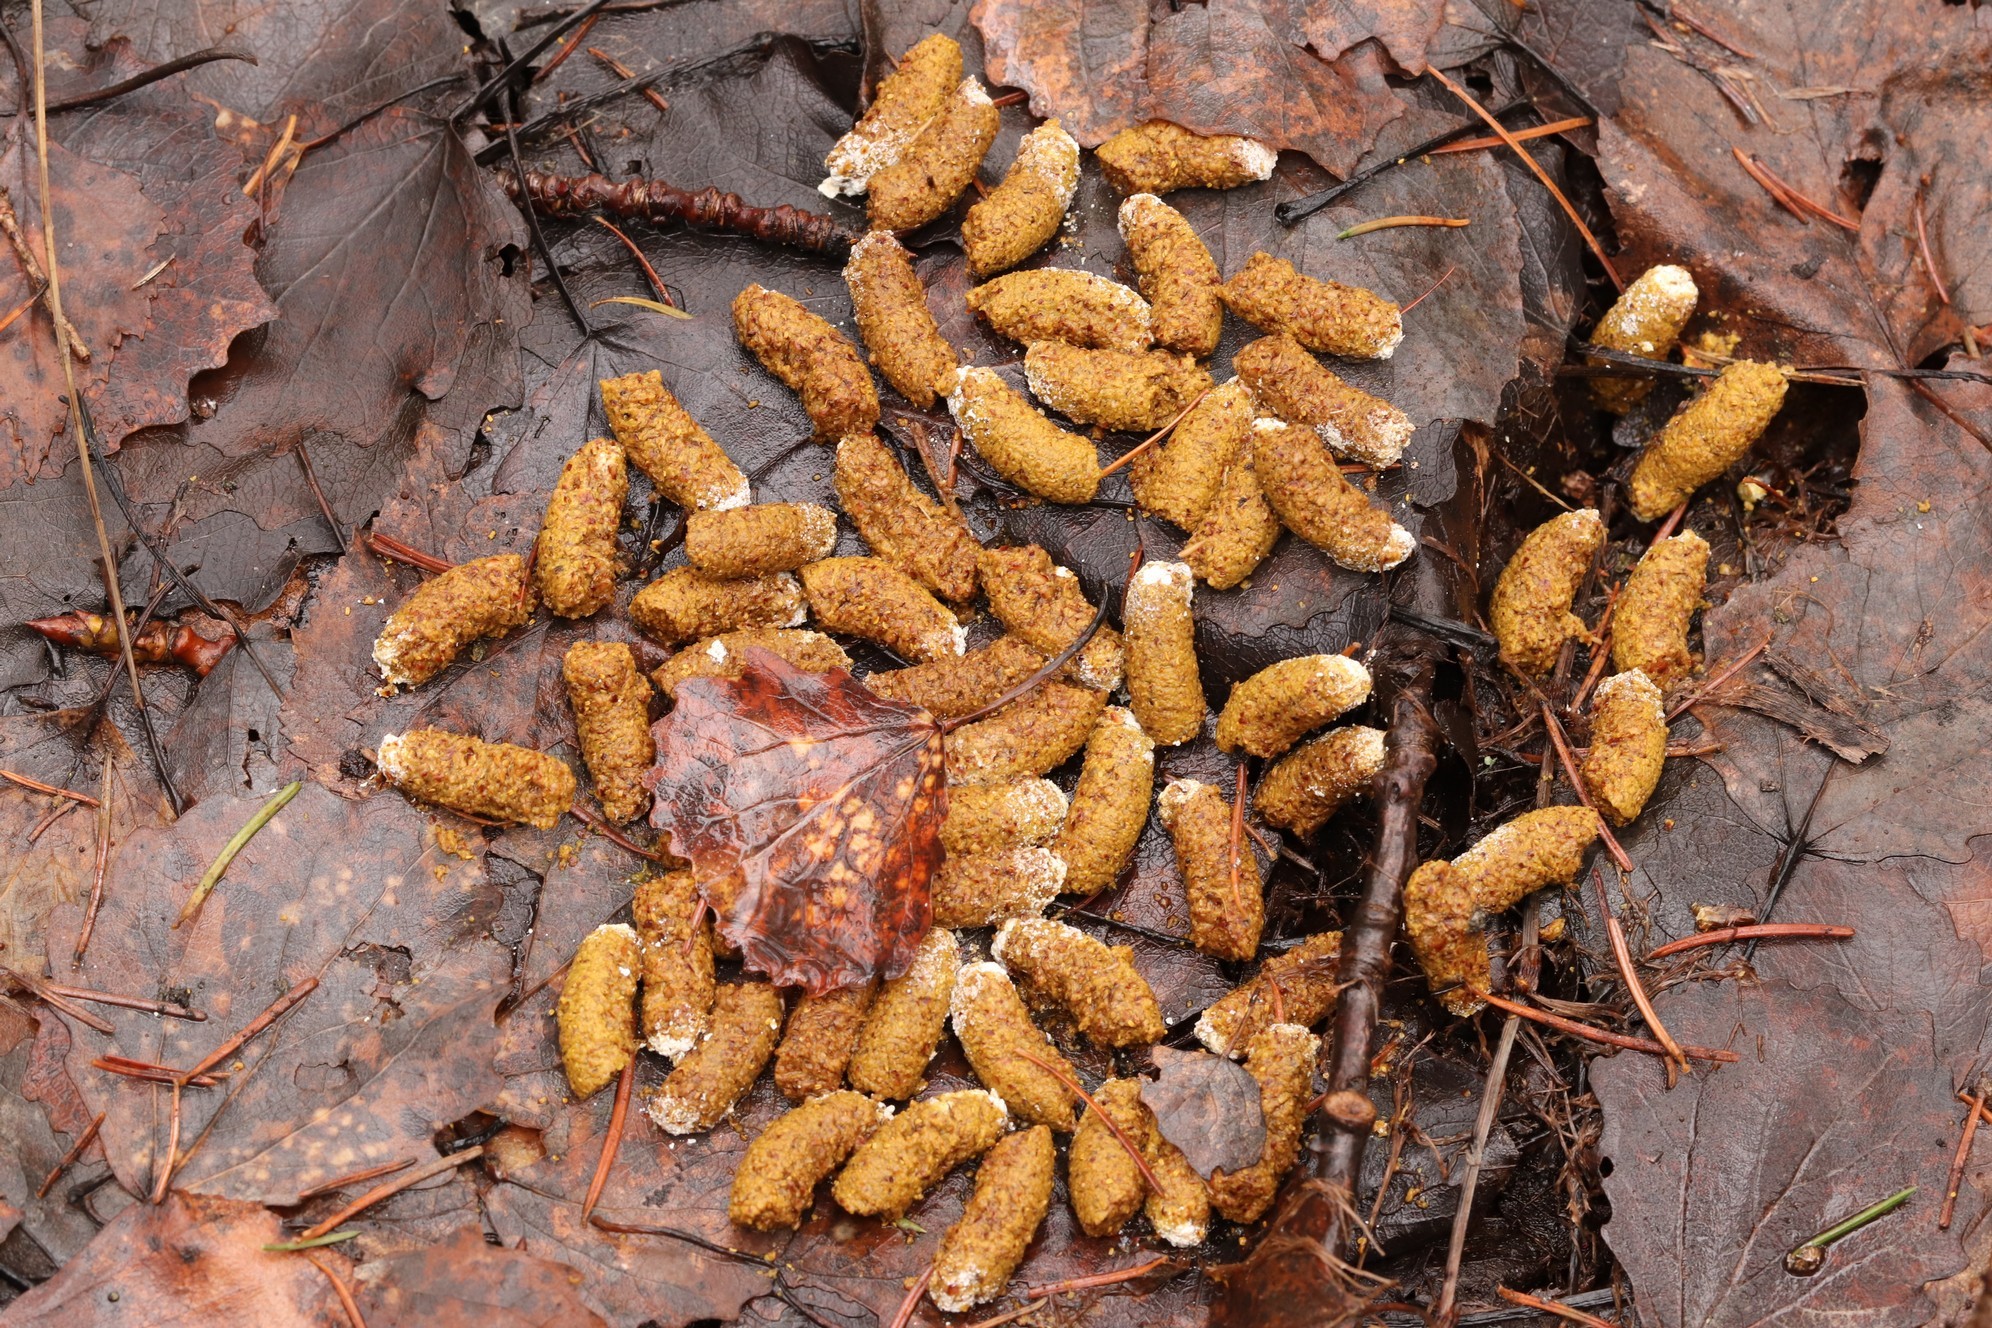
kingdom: Animalia
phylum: Chordata
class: Aves
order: Galliformes
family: Phasianidae
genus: Tetrastes
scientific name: Tetrastes bonasia
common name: Hazel grouse
